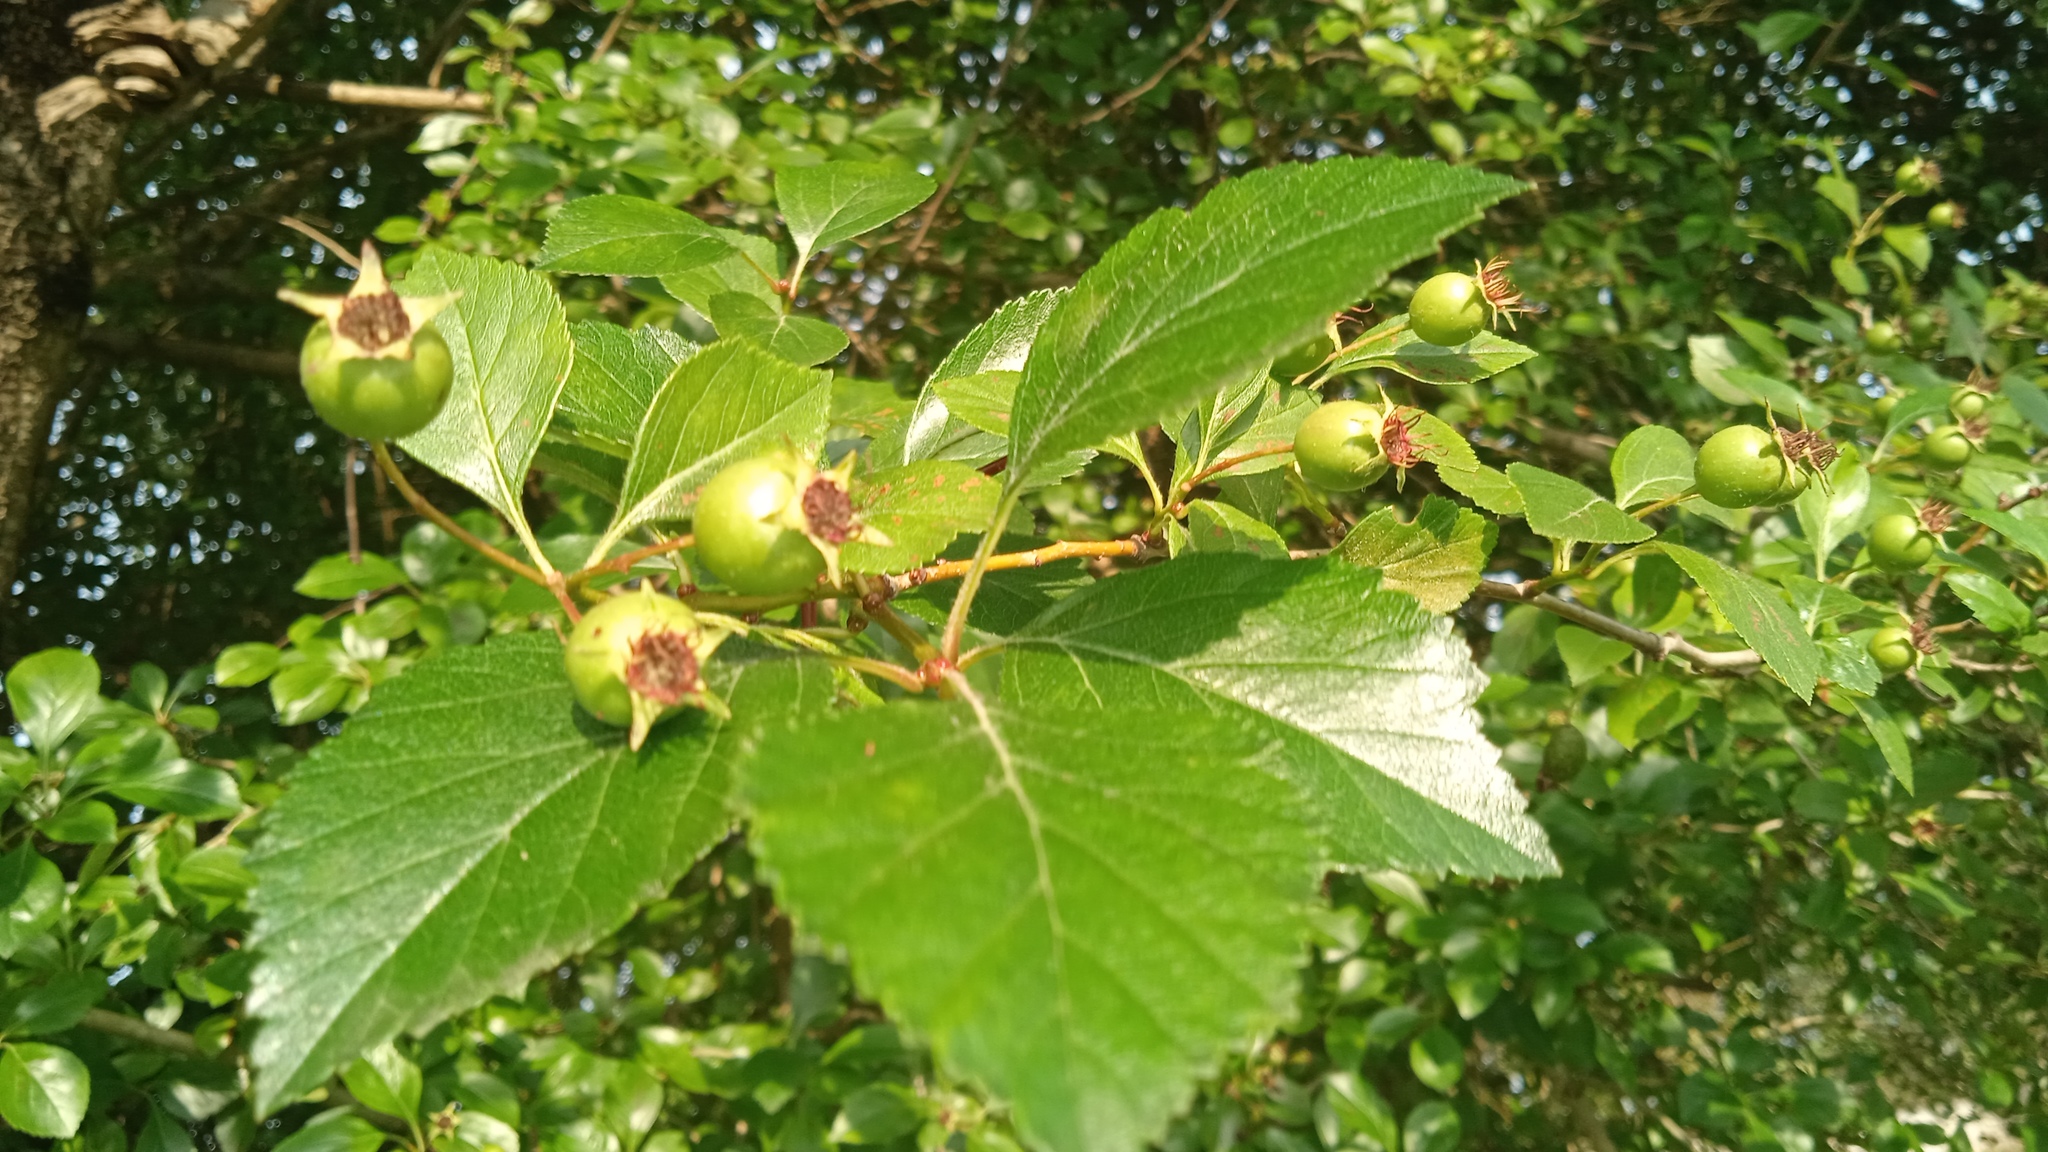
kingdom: Plantae
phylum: Tracheophyta
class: Magnoliopsida
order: Rosales
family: Rosaceae
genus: Crataegus
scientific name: Crataegus mexicana
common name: Mexican hawthorn
